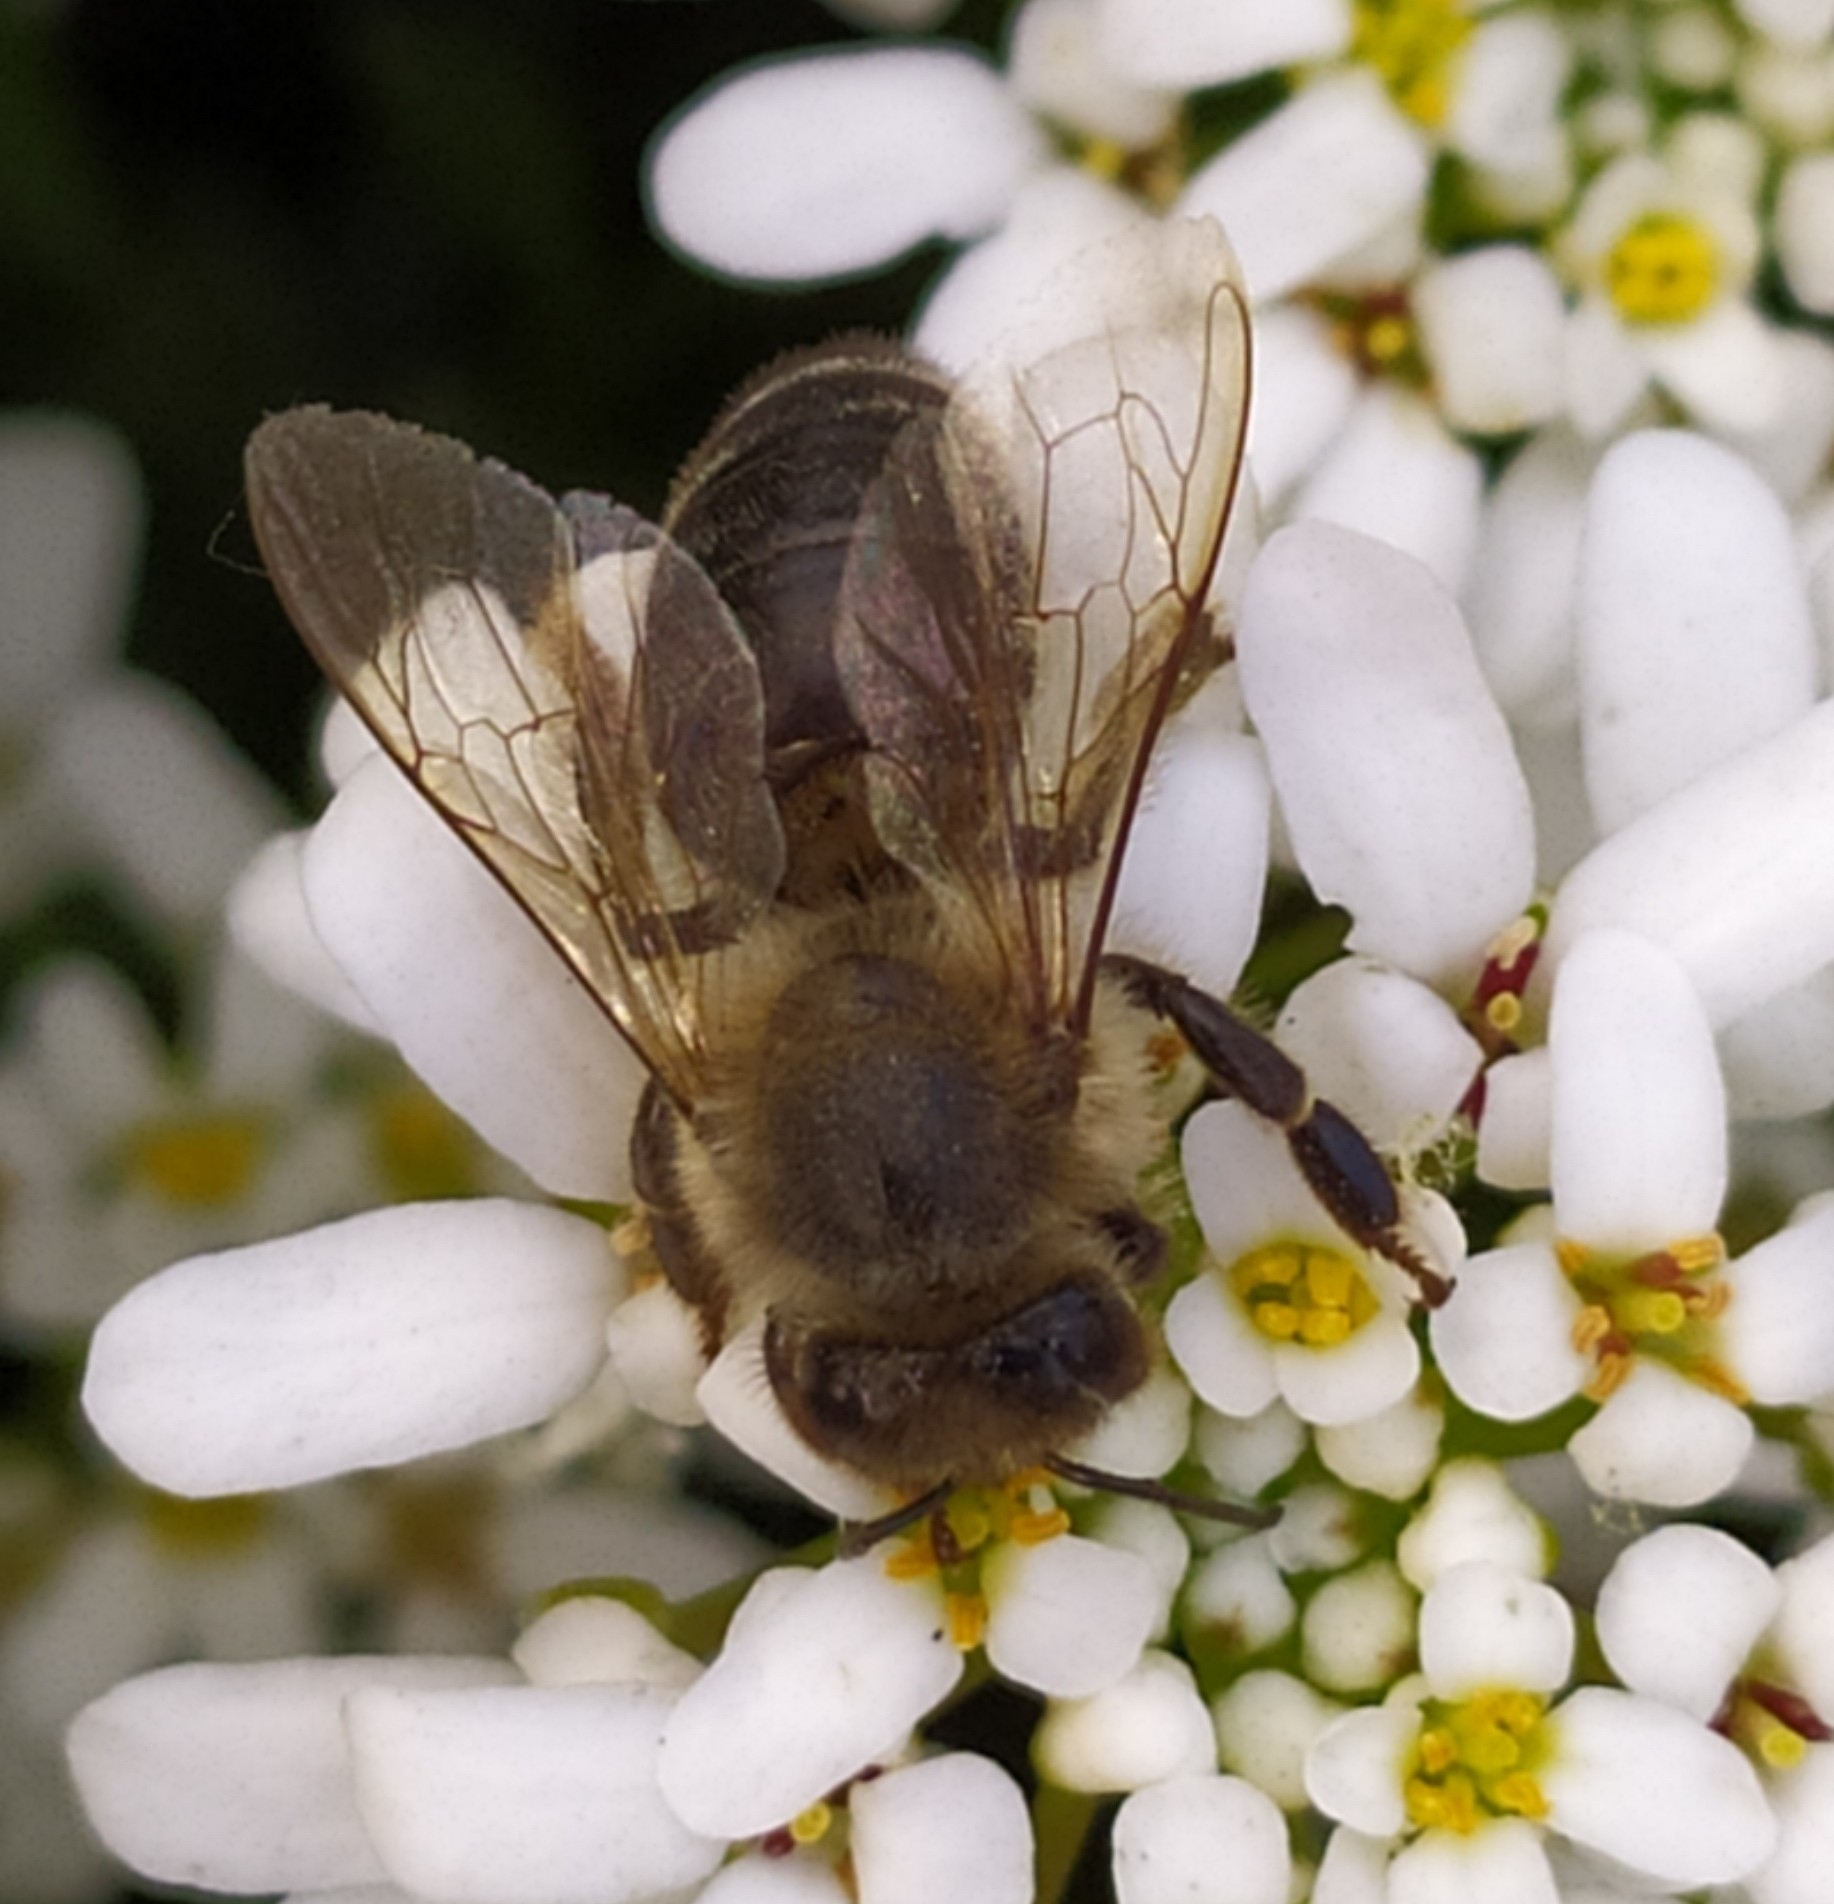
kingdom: Animalia
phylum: Arthropoda
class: Insecta
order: Hymenoptera
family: Apidae
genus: Apis
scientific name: Apis mellifera
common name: Honey bee
